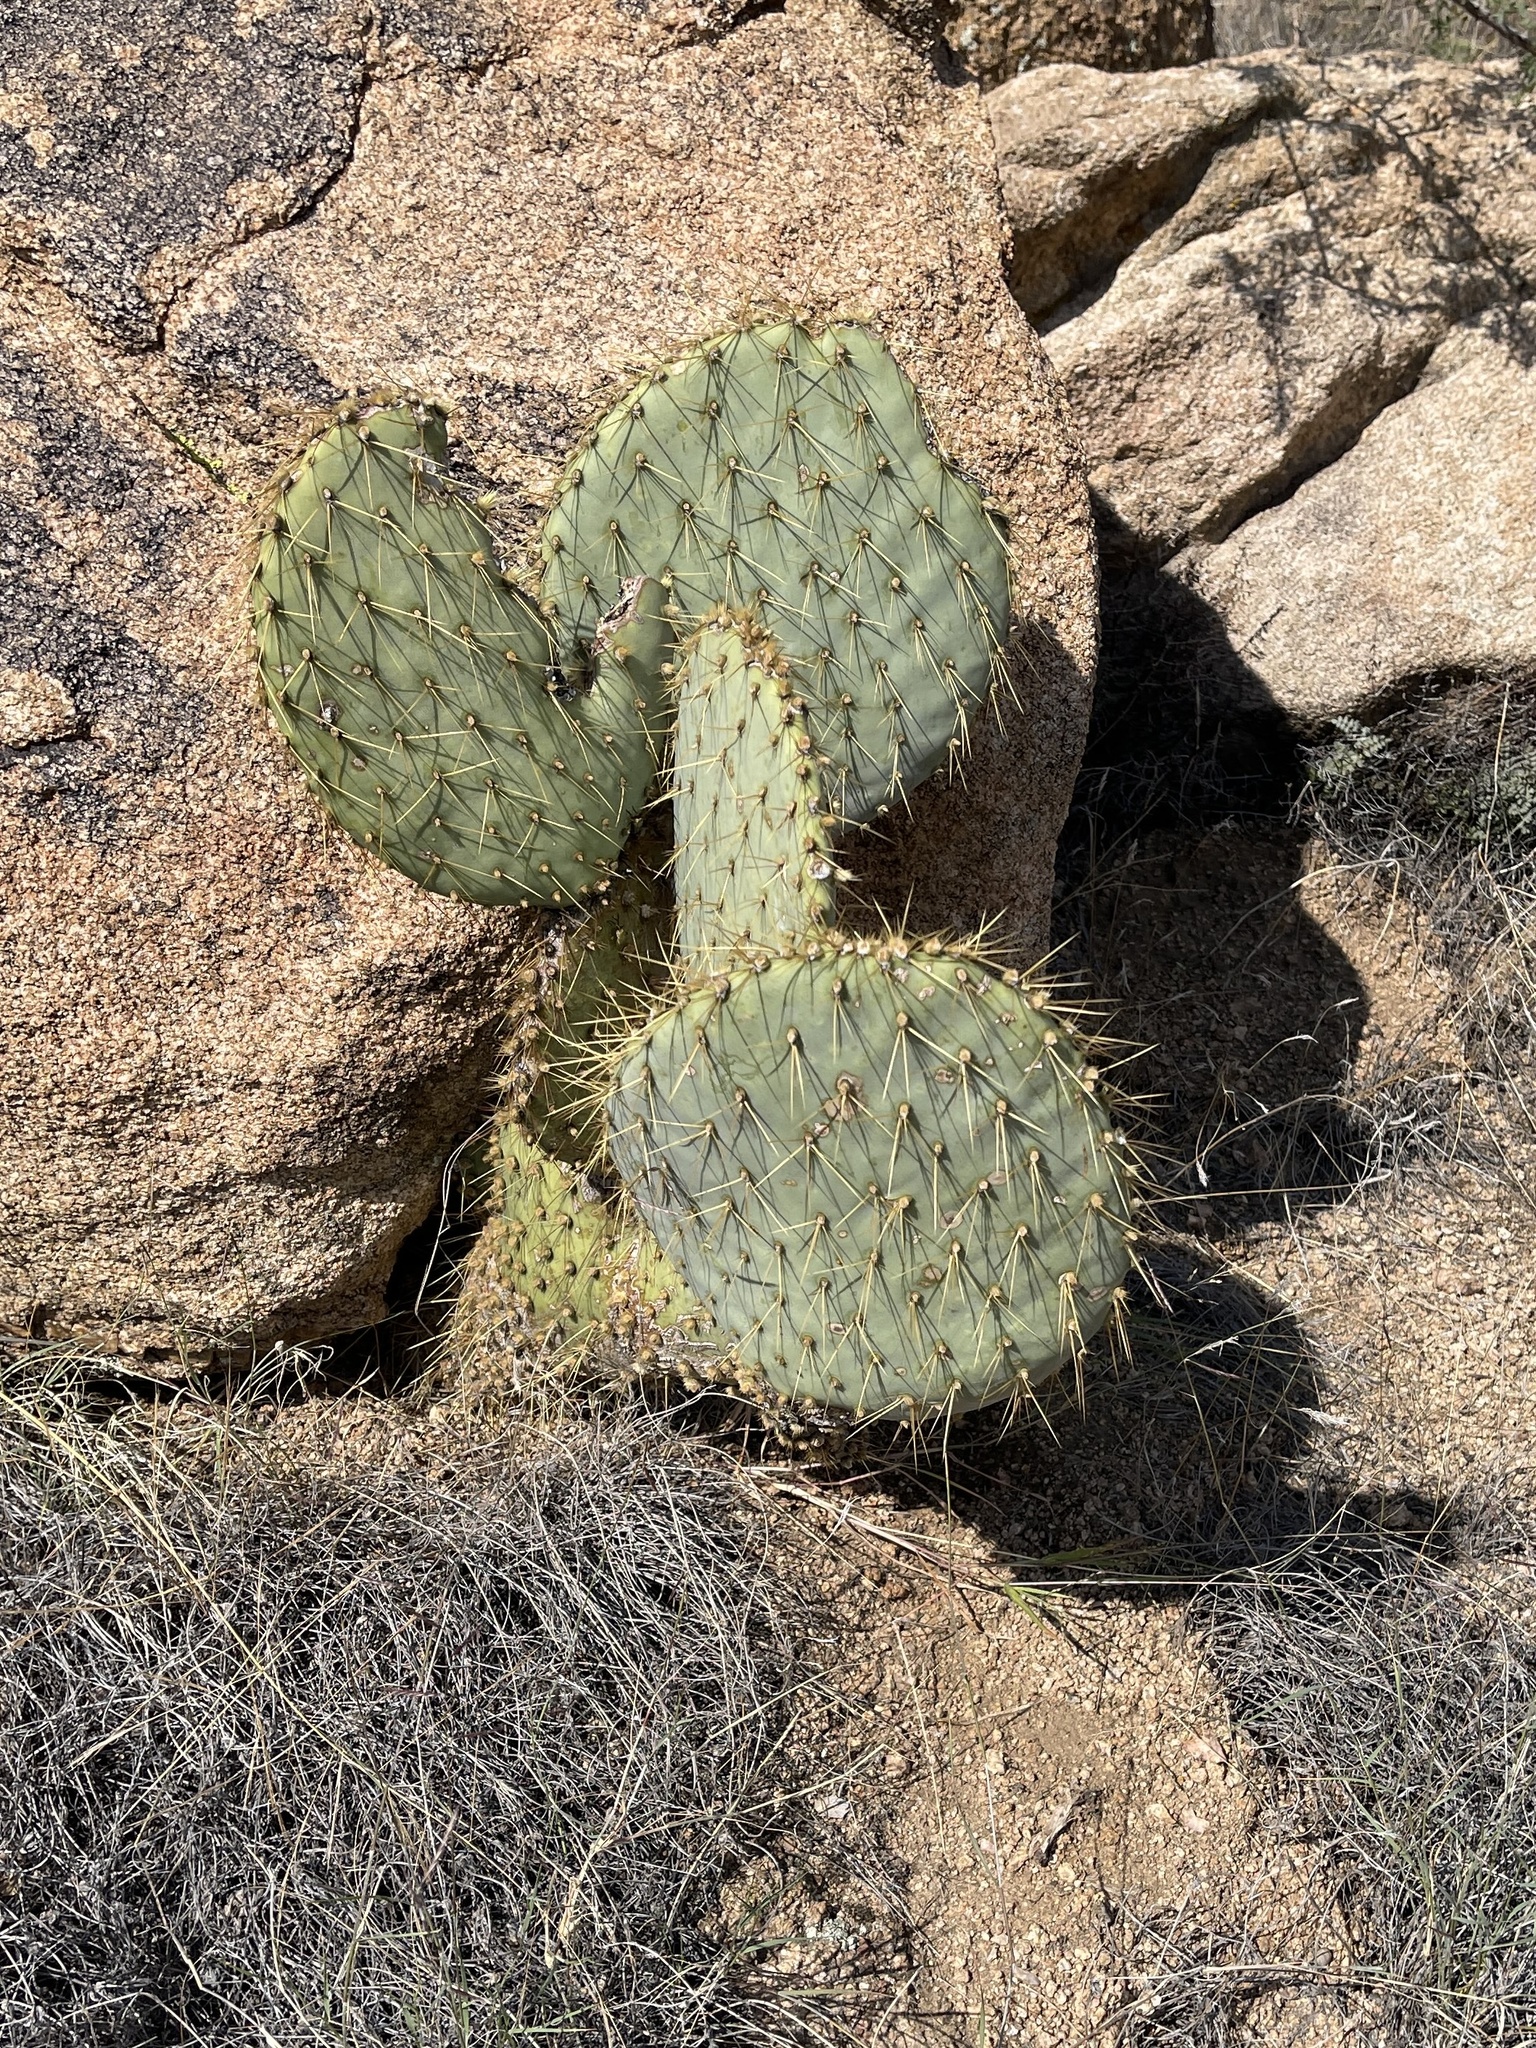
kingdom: Plantae
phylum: Tracheophyta
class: Magnoliopsida
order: Caryophyllales
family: Cactaceae
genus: Opuntia
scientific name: Opuntia chlorotica
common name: Dollar-joint prickly-pear
